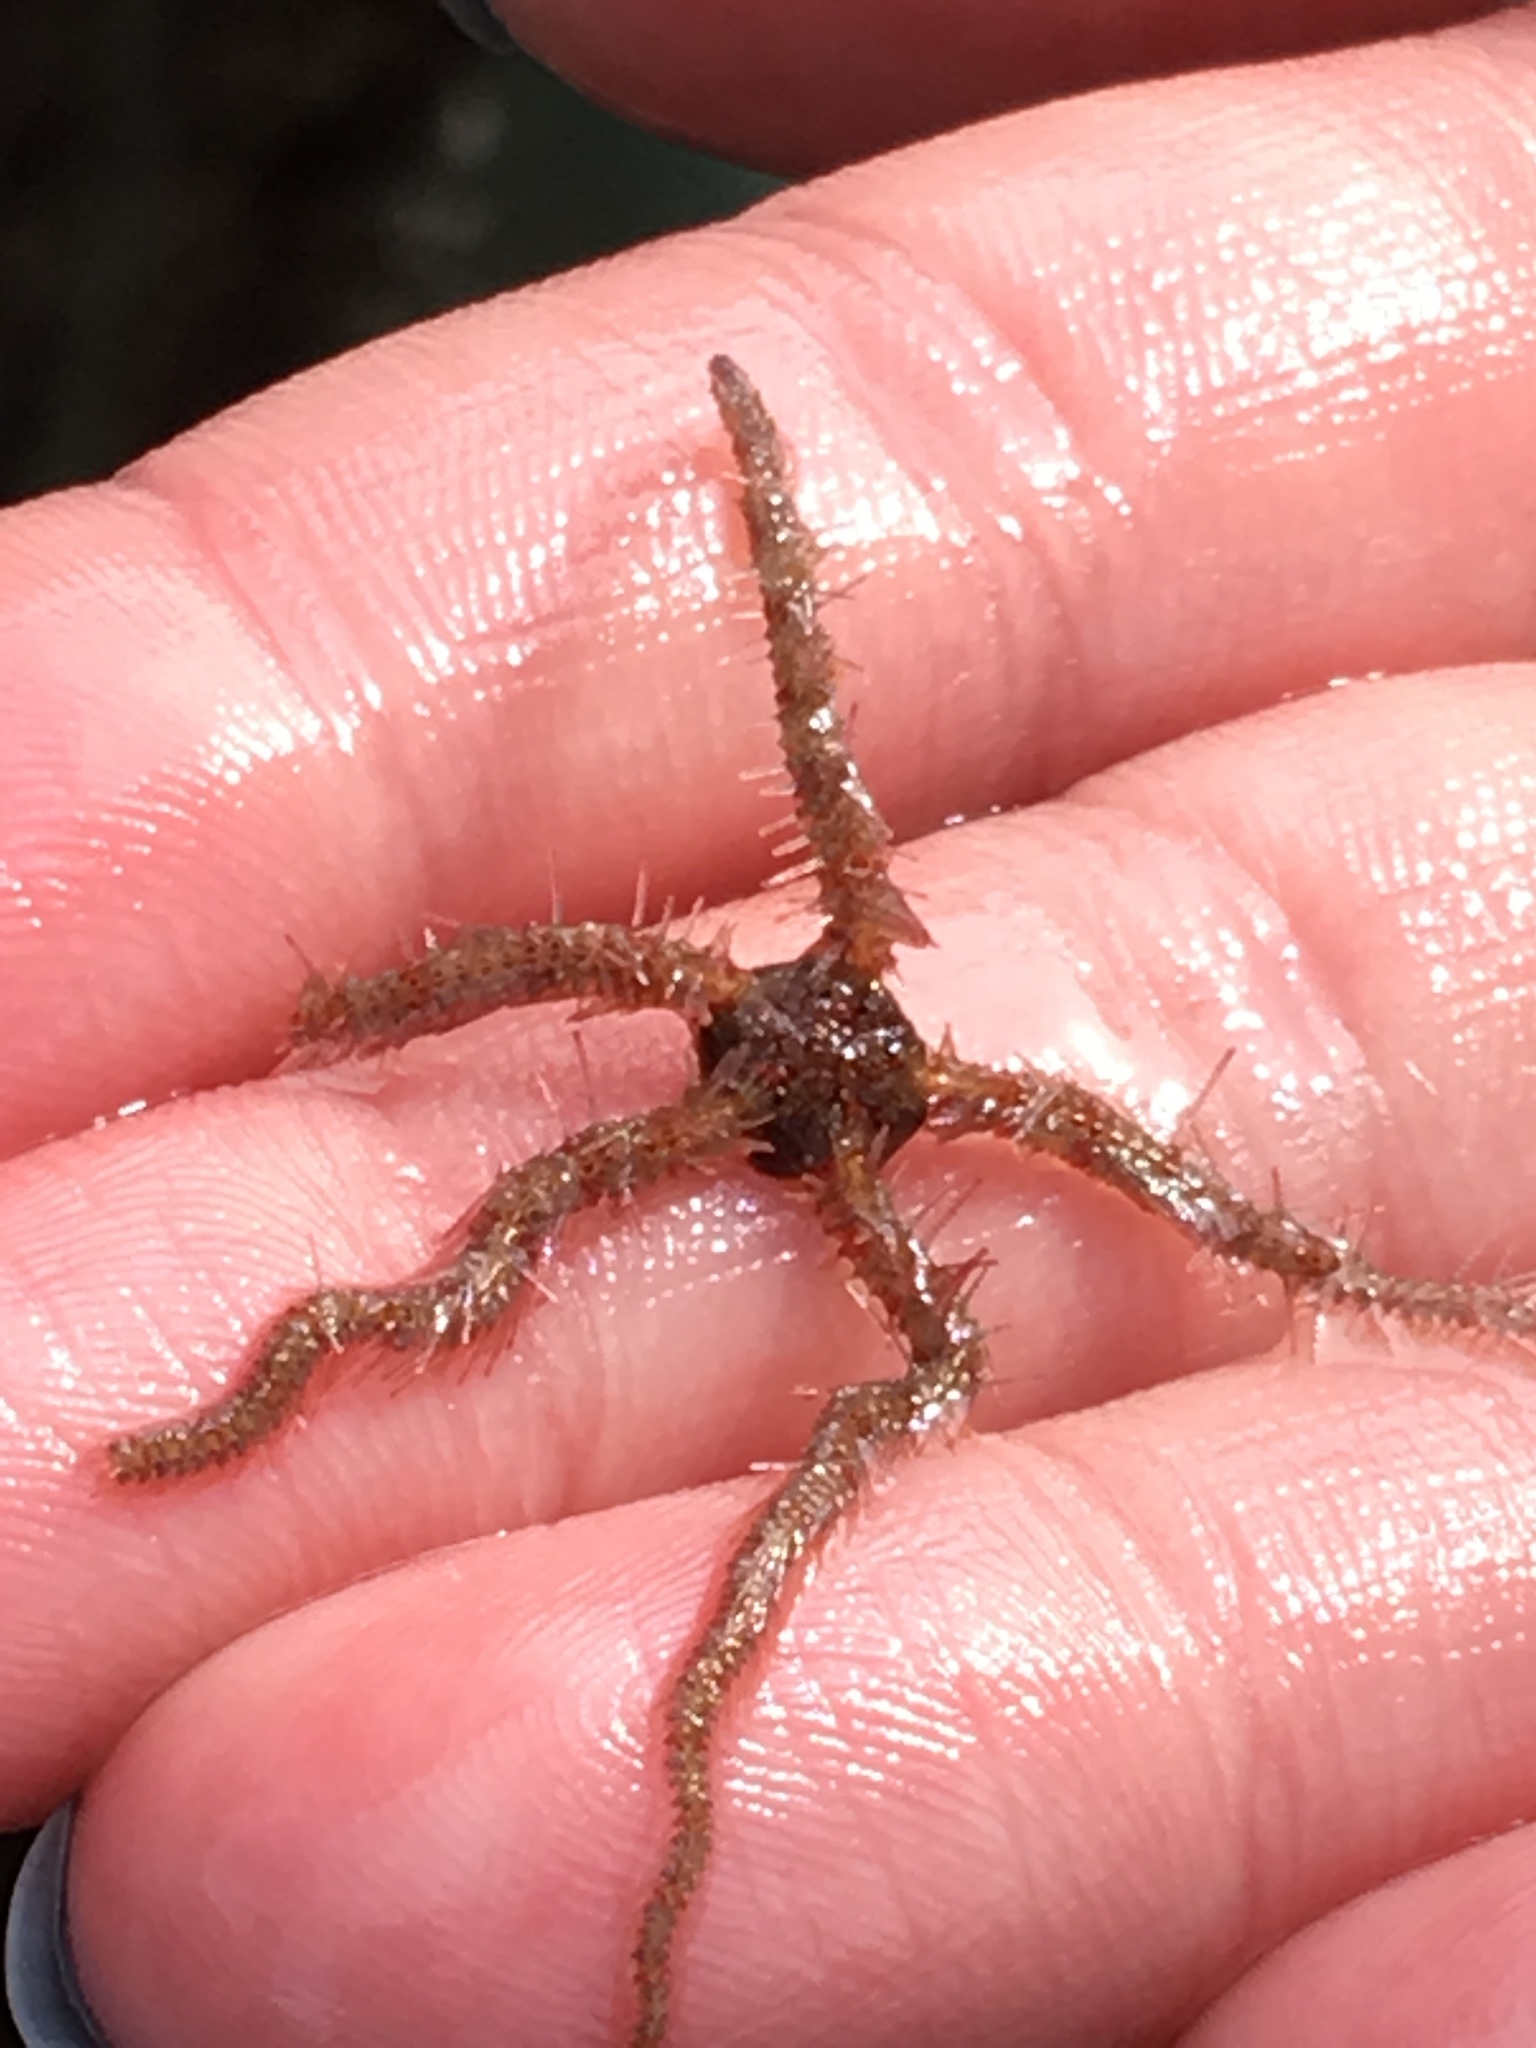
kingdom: Animalia
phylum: Echinodermata
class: Ophiuroidea
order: Amphilepidida
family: Ophiotrichidae
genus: Ophiothrix
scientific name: Ophiothrix spiculata
